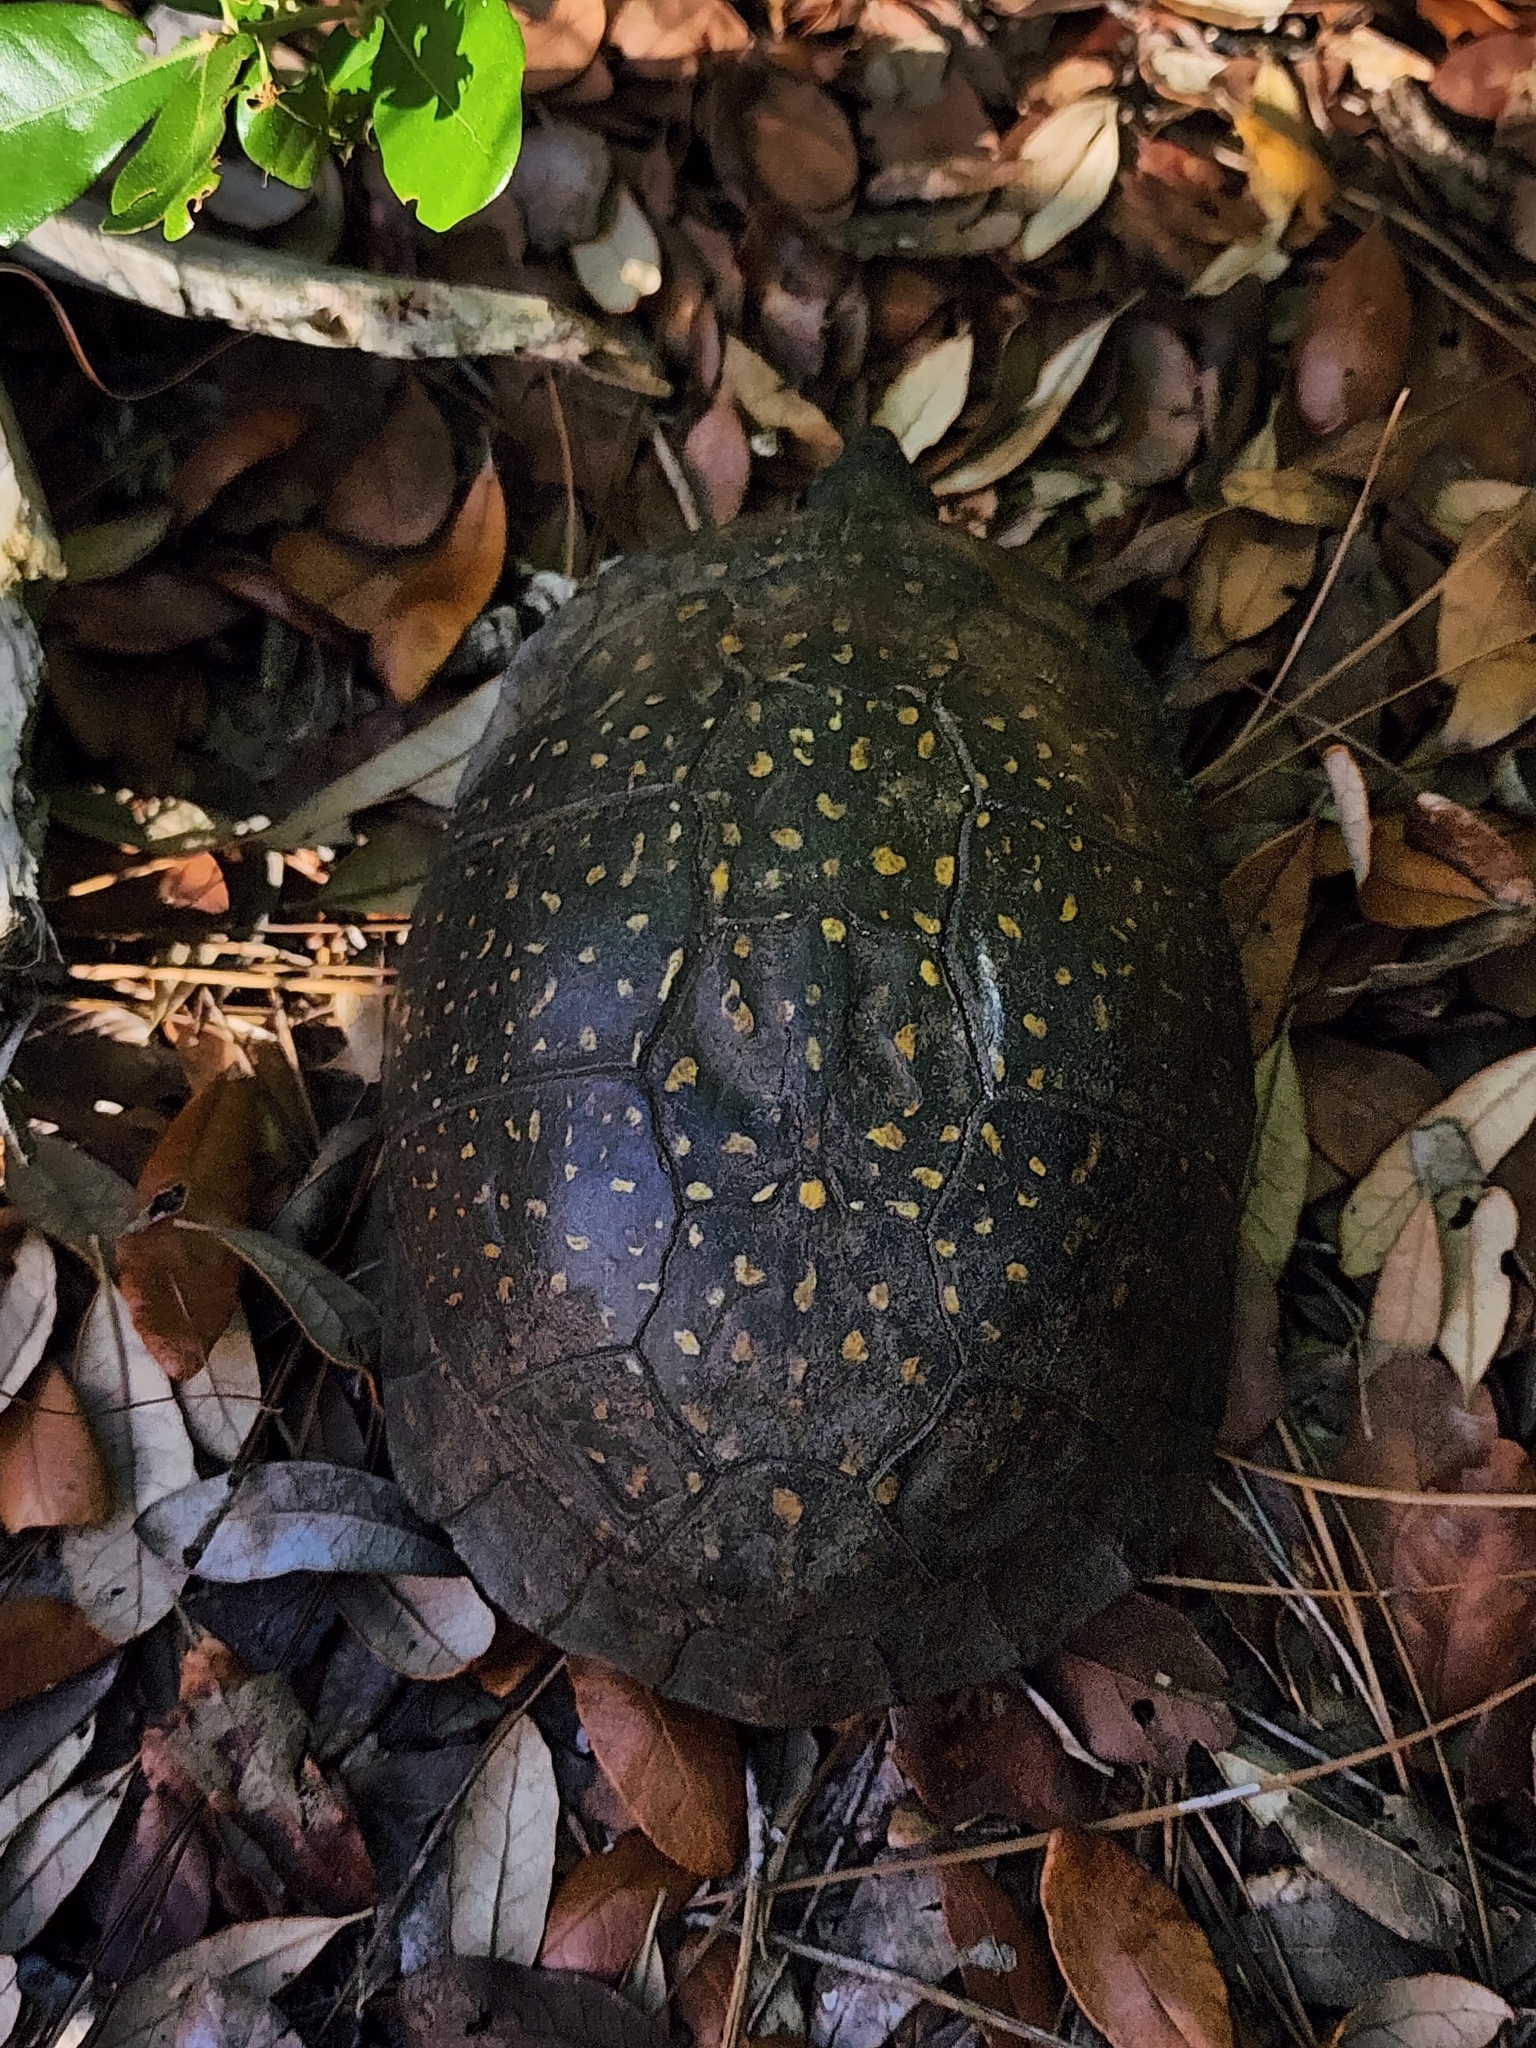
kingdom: Animalia
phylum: Chordata
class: Testudines
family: Emydidae
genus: Terrapene
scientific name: Terrapene carolina
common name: Common box turtle
